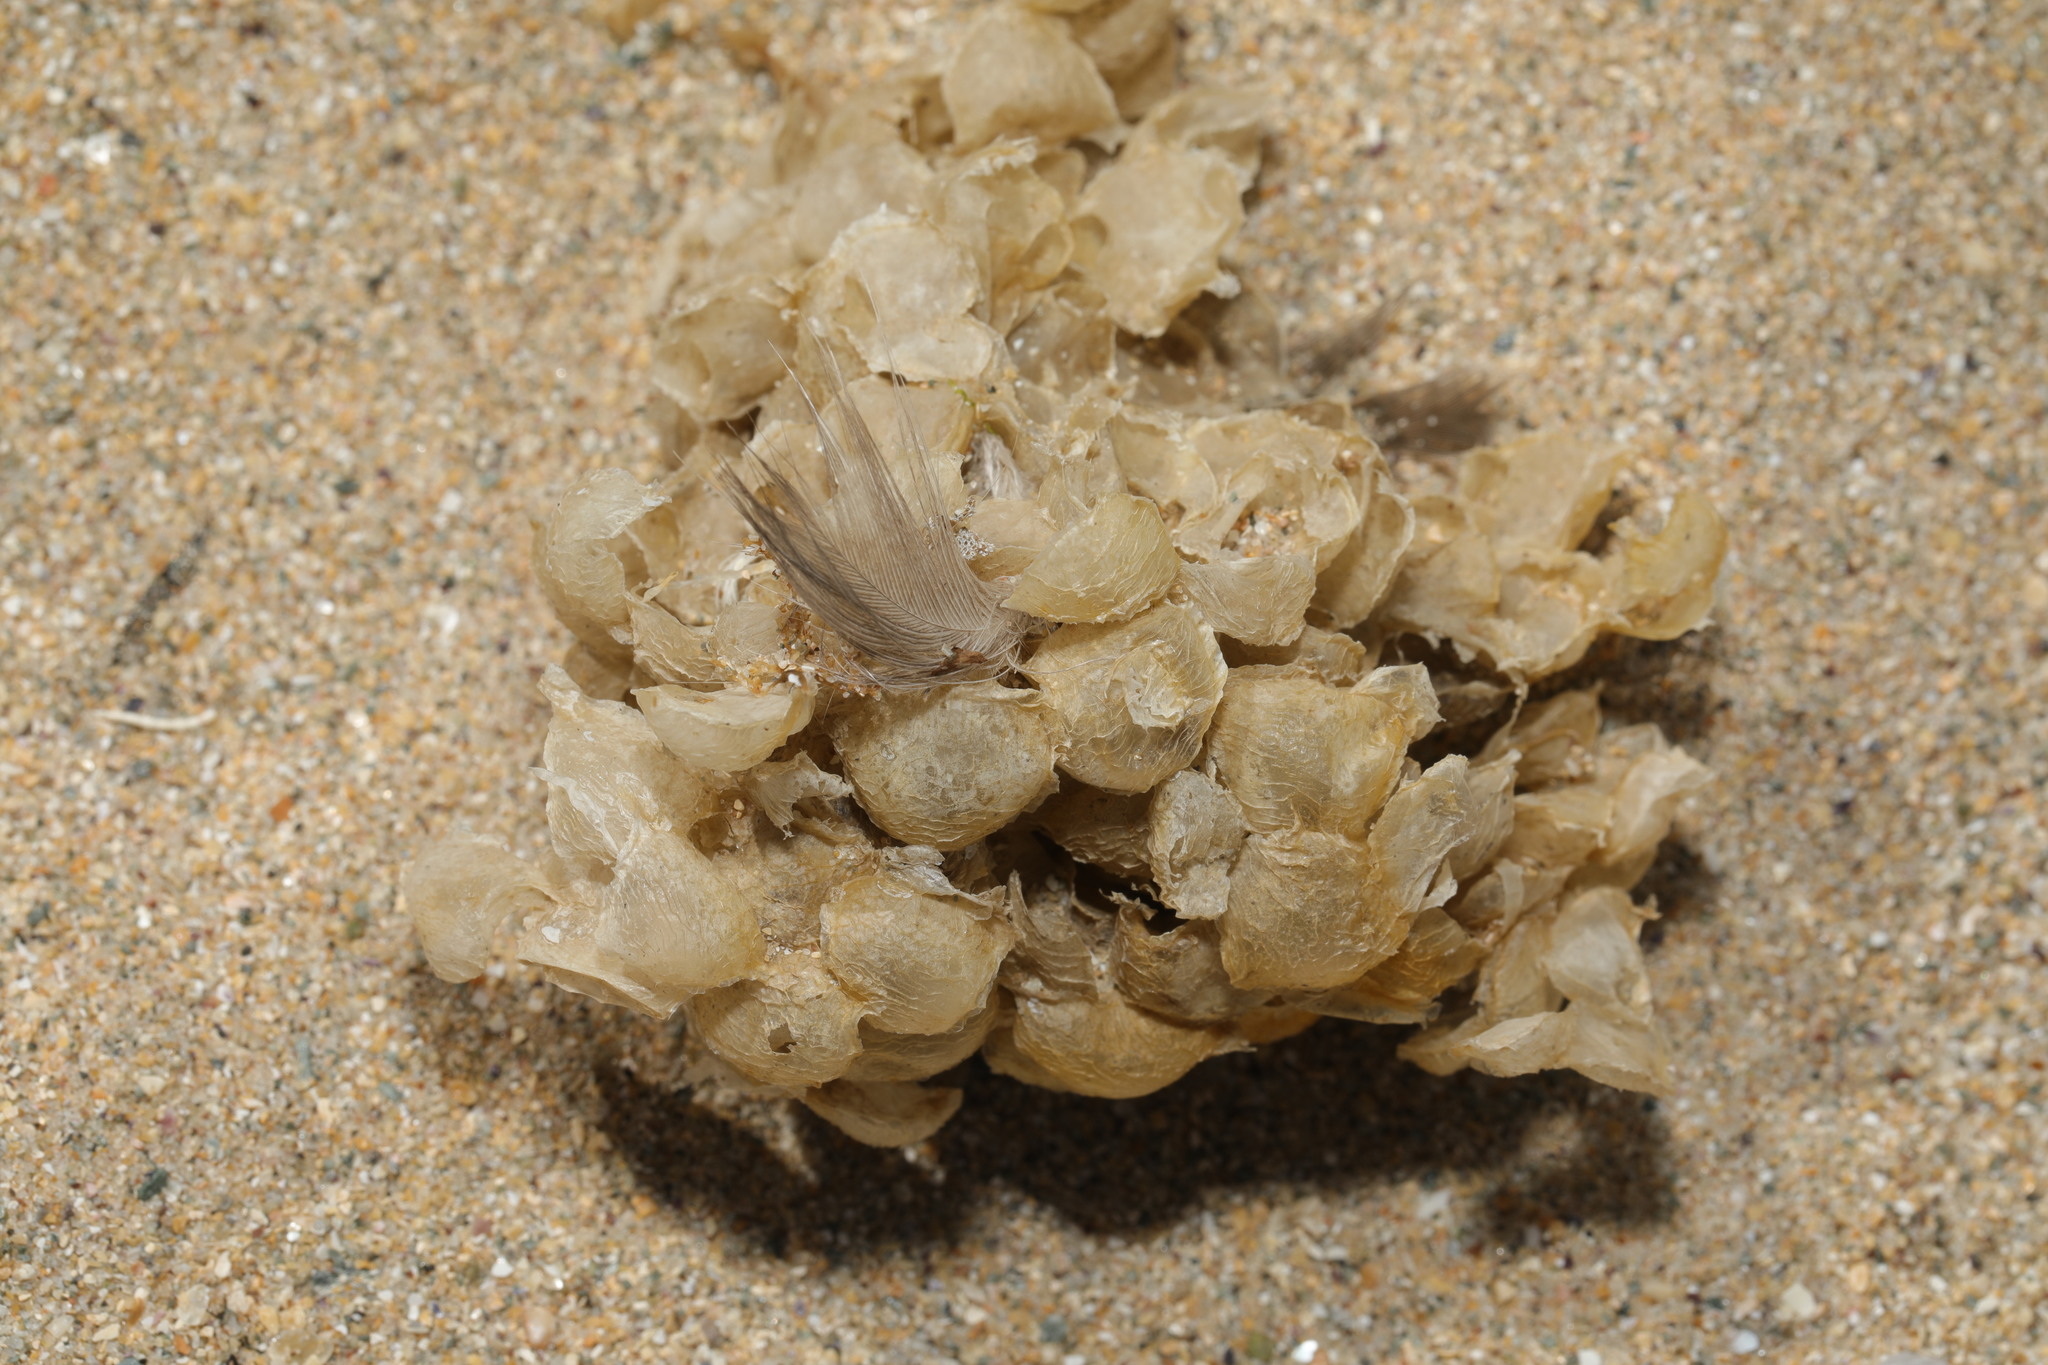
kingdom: Animalia
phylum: Mollusca
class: Gastropoda
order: Neogastropoda
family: Buccinidae
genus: Buccinum
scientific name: Buccinum undatum
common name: Common whelk
